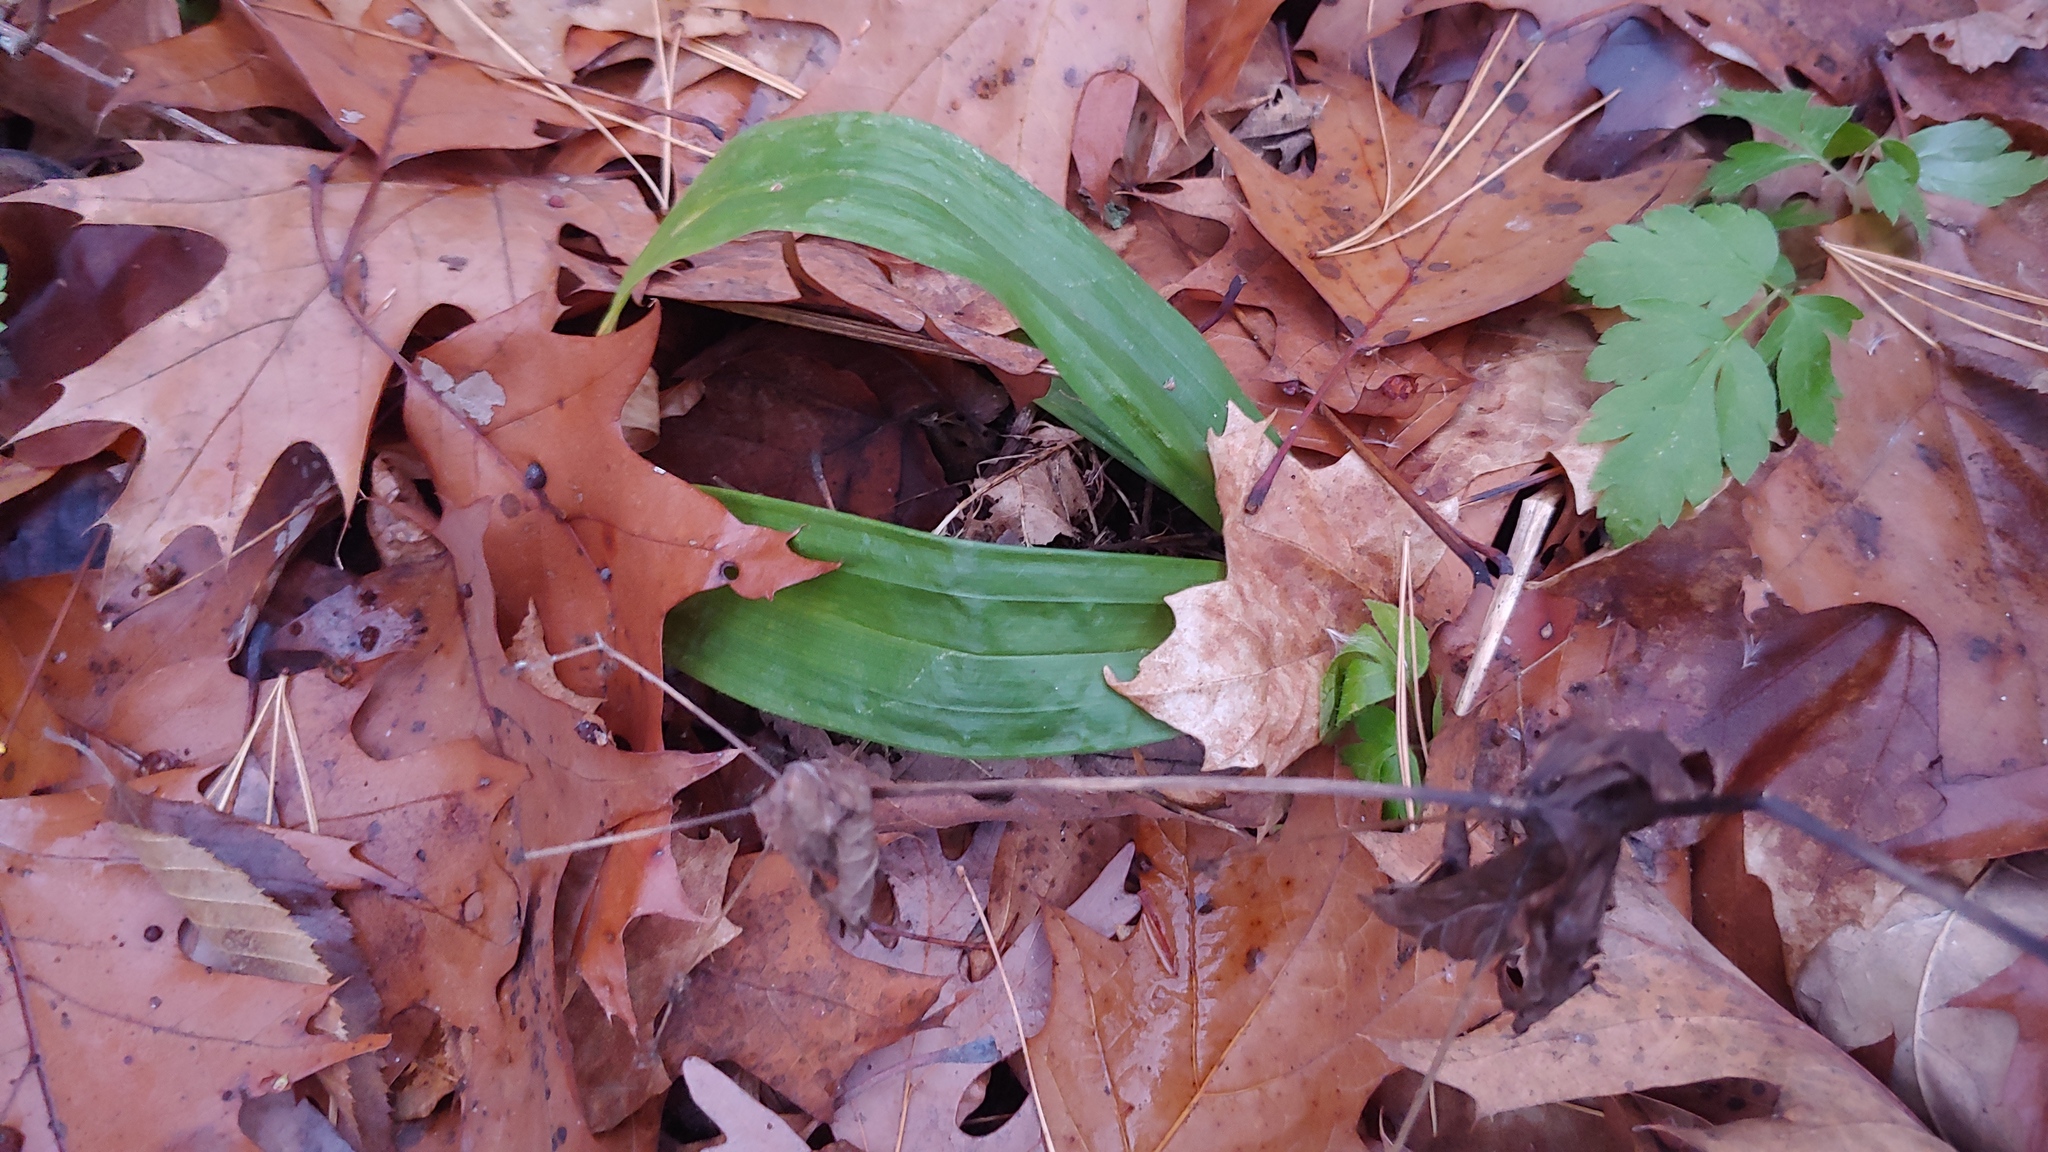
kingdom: Plantae
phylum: Tracheophyta
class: Liliopsida
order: Poales
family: Cyperaceae
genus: Carex
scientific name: Carex albursina
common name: Blunt-scale wood sedge
